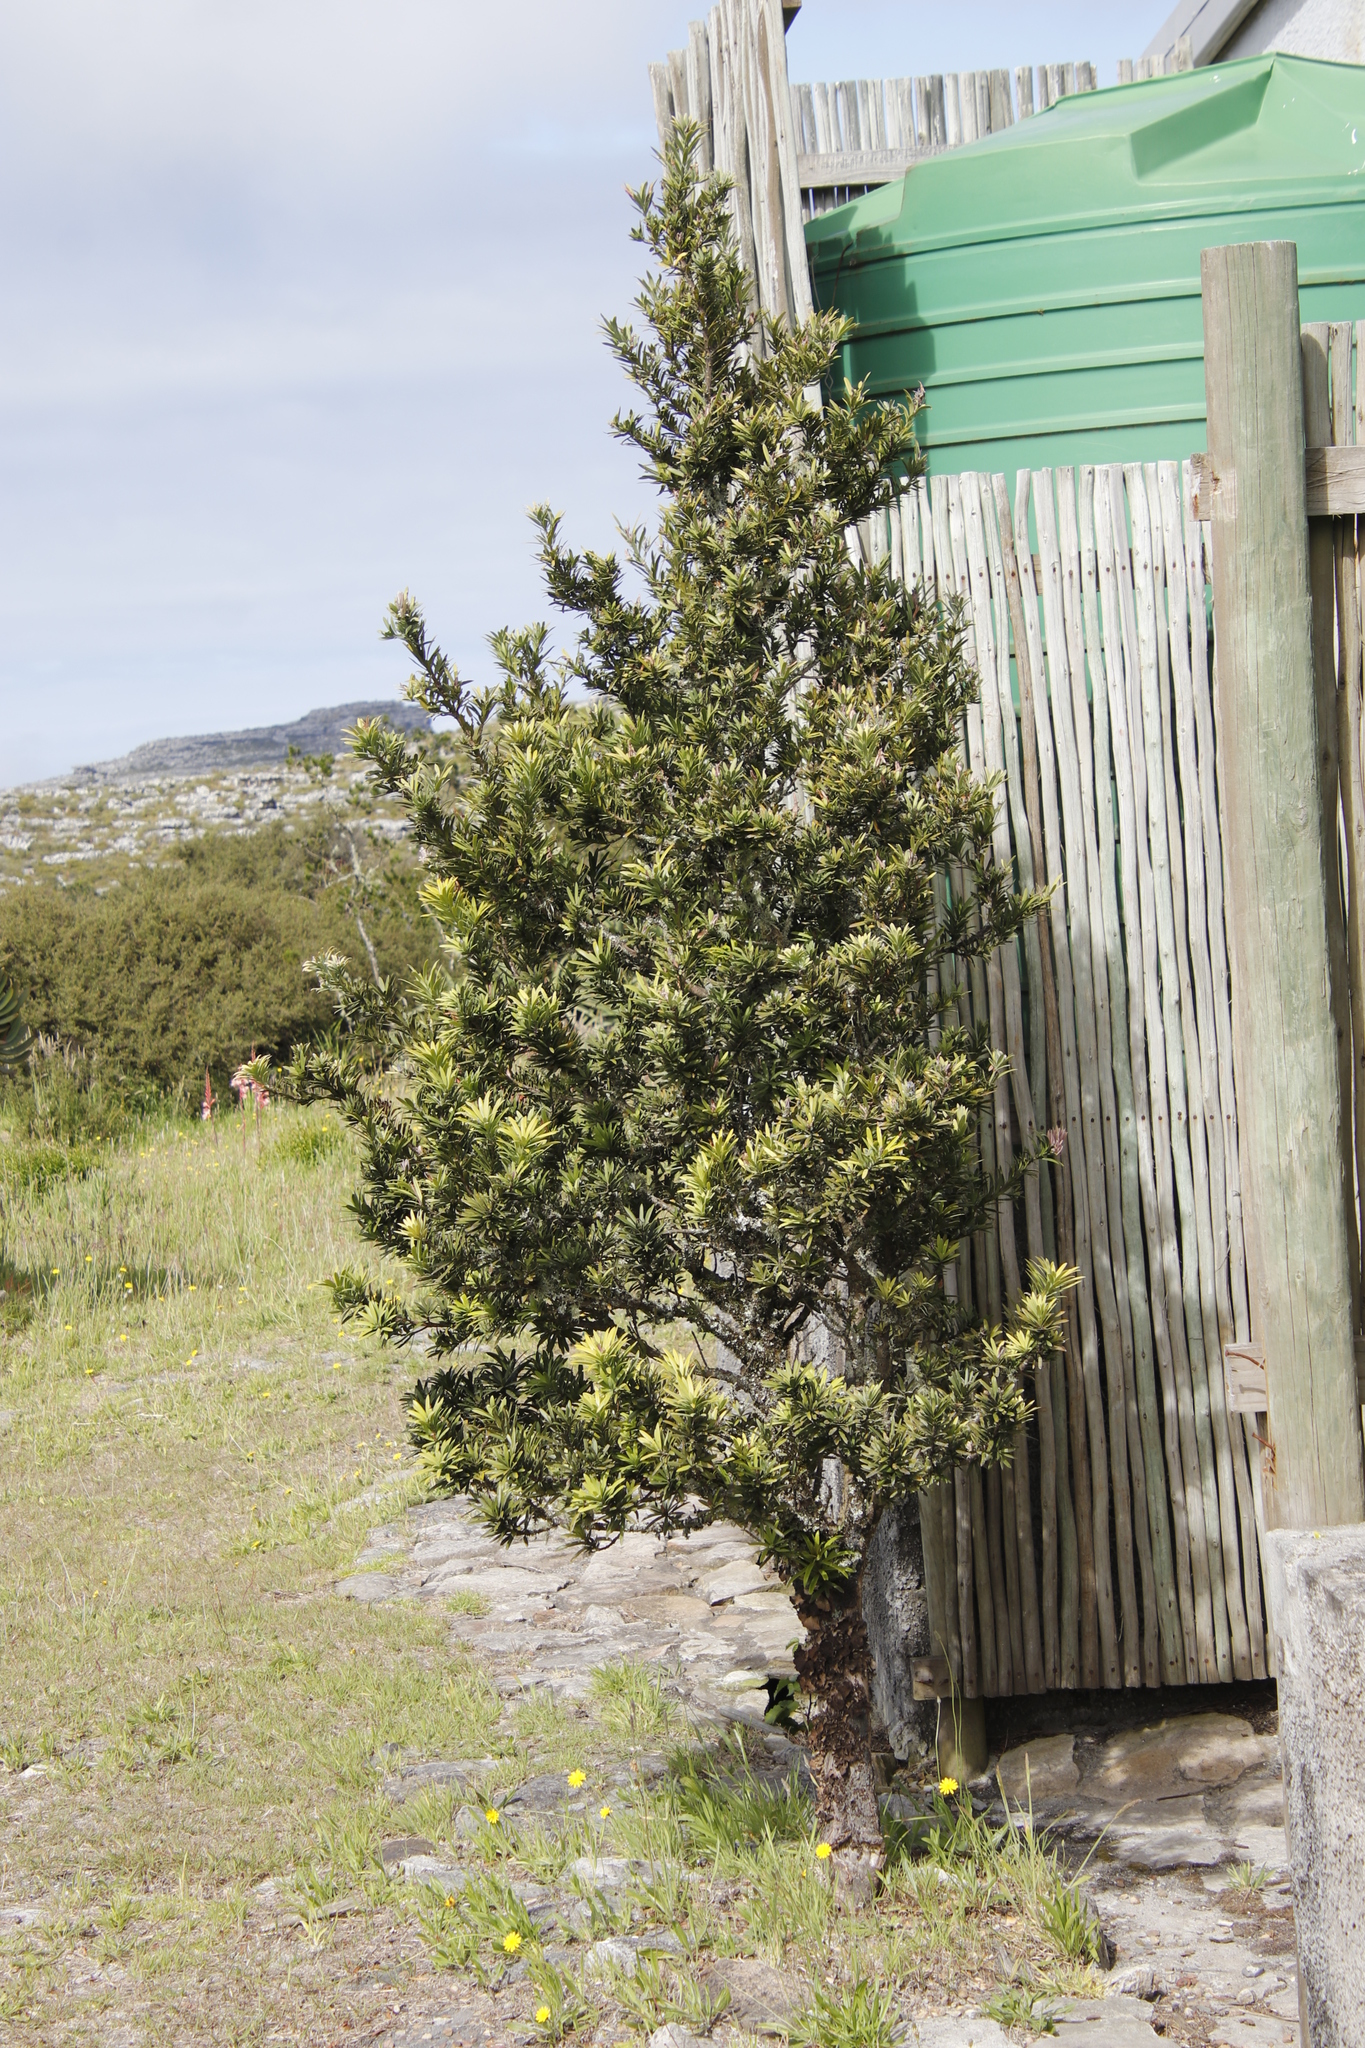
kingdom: Plantae
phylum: Tracheophyta
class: Pinopsida
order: Pinales
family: Podocarpaceae
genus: Podocarpus
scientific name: Podocarpus latifolius
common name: True yellowwood
